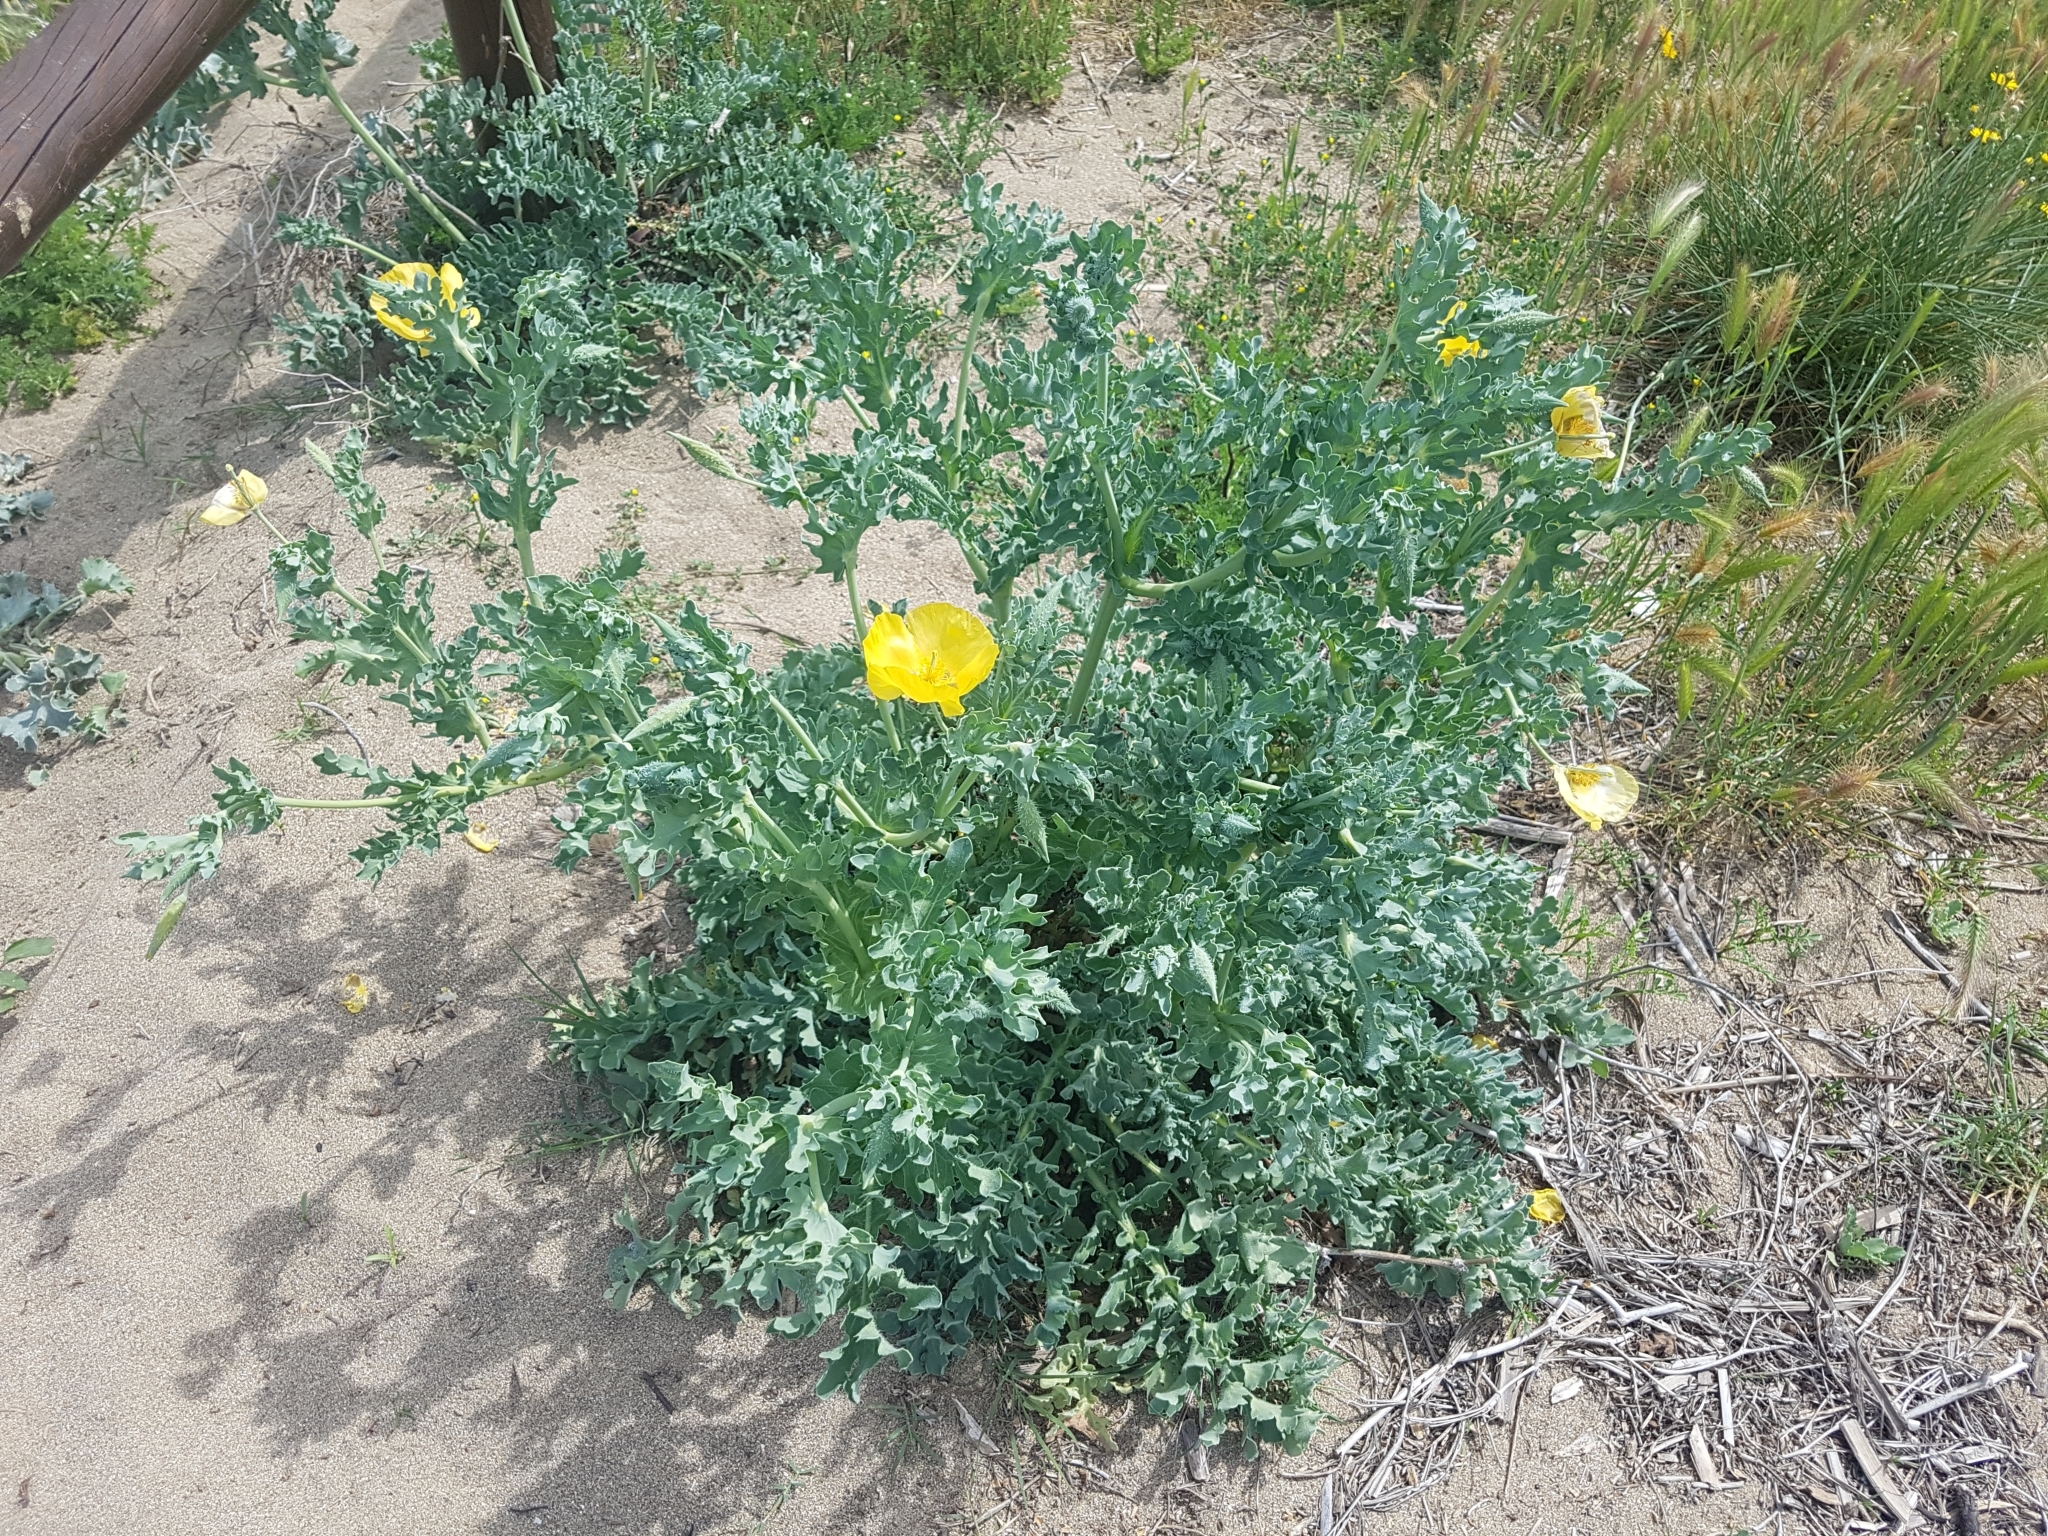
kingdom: Plantae
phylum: Tracheophyta
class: Magnoliopsida
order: Ranunculales
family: Papaveraceae
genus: Glaucium
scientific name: Glaucium flavum
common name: Yellow horned-poppy
